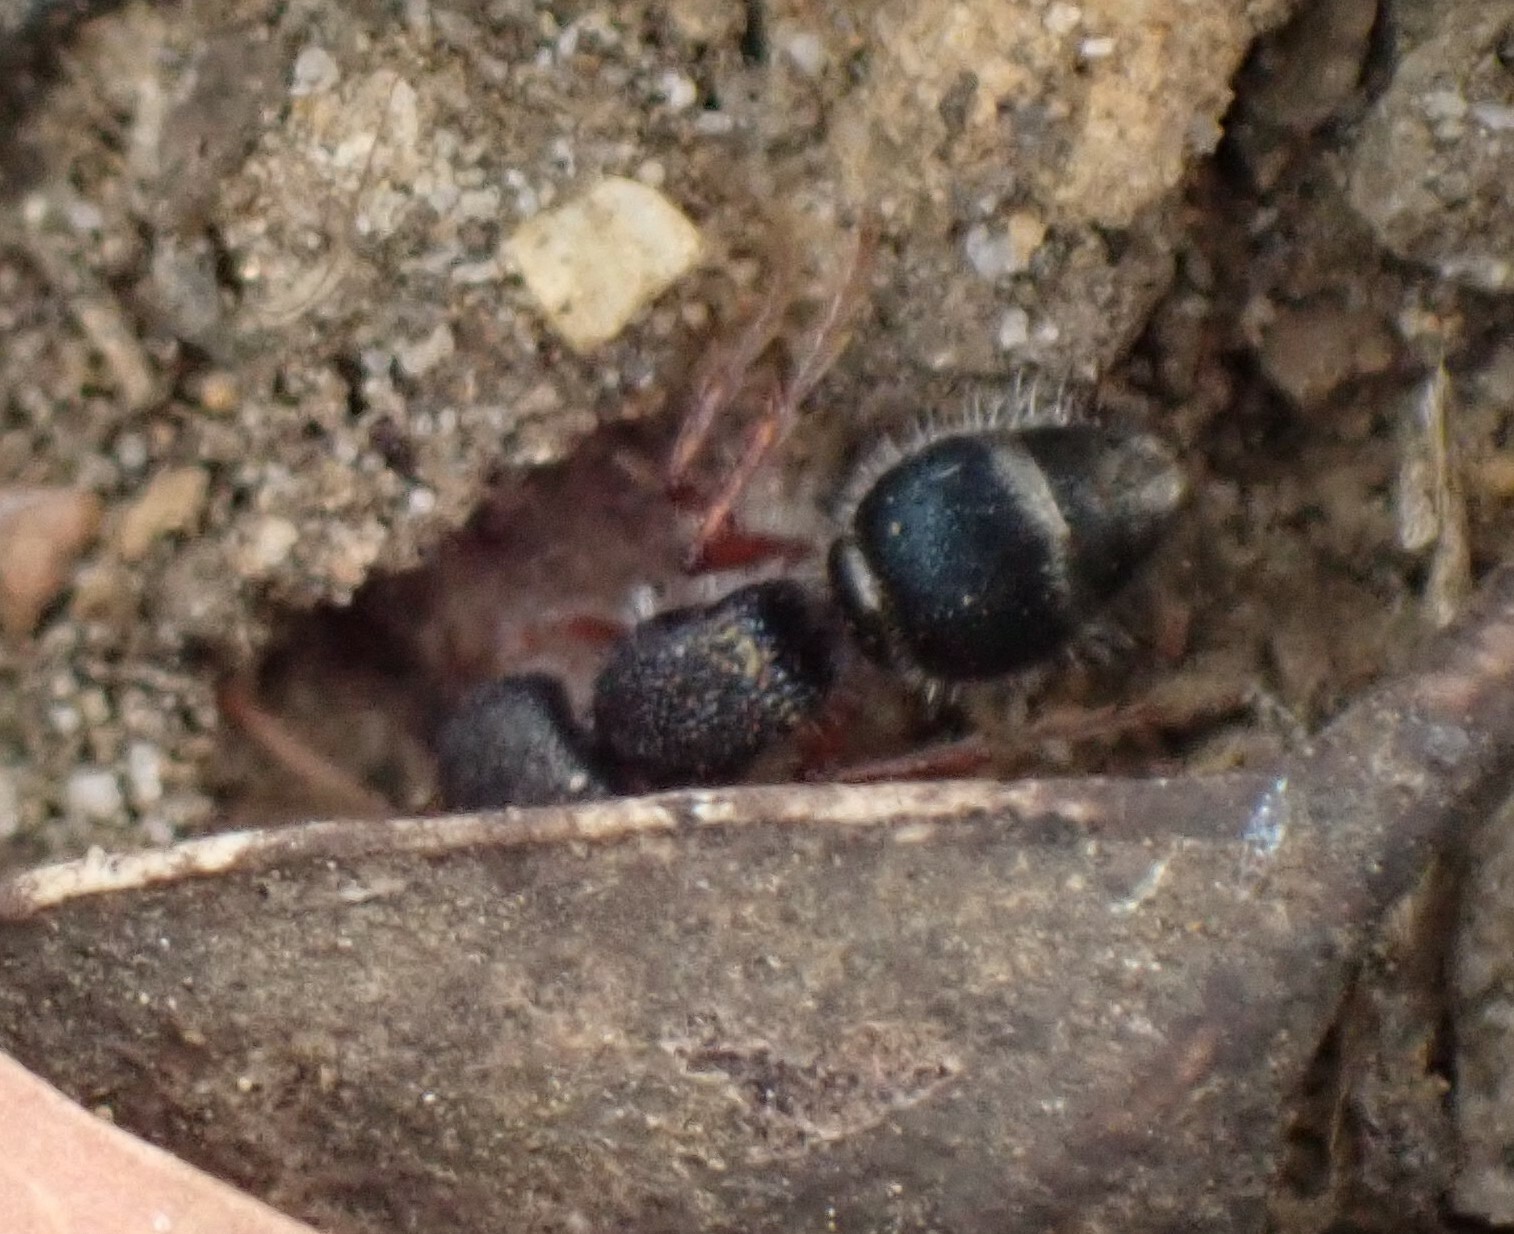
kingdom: Animalia
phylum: Arthropoda
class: Insecta
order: Hymenoptera
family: Mutillidae
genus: Ephutomorpha
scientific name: Ephutomorpha
